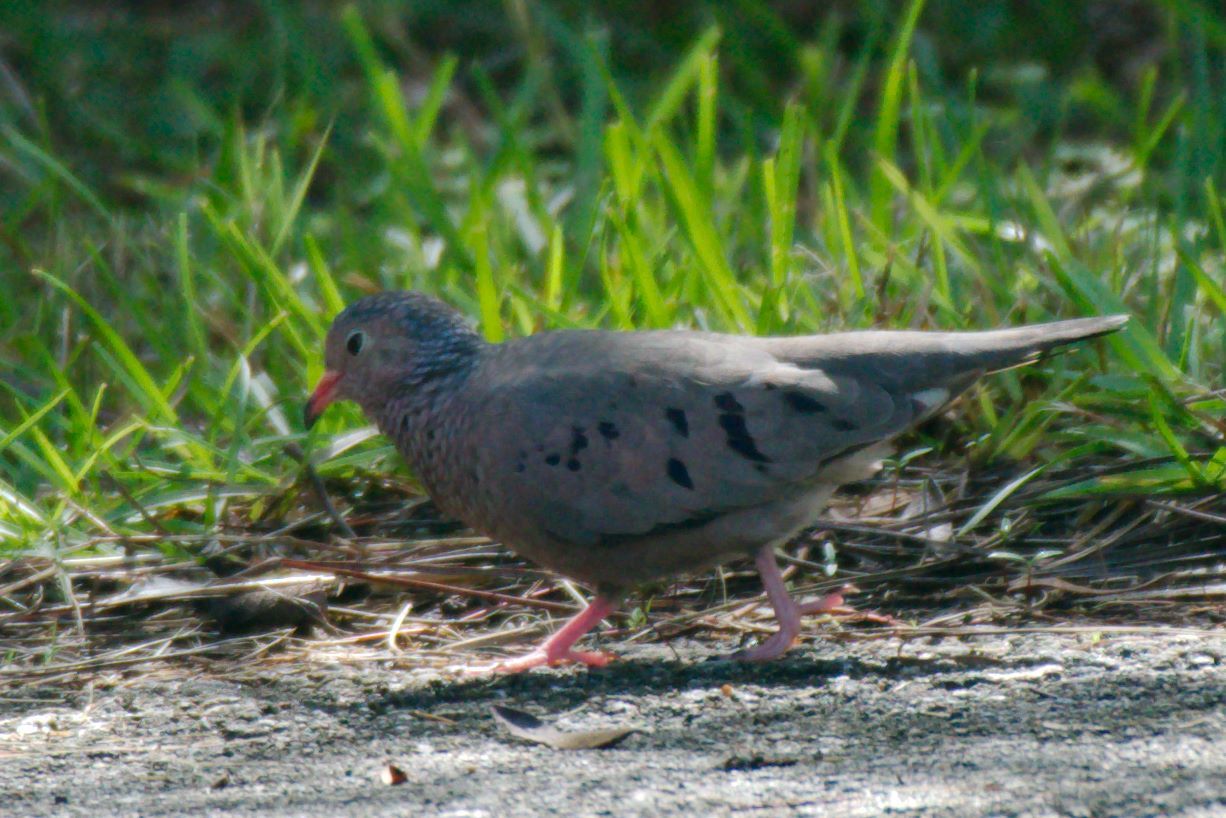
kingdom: Animalia
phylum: Chordata
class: Aves
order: Columbiformes
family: Columbidae
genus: Columbina
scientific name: Columbina passerina
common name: Common ground-dove
